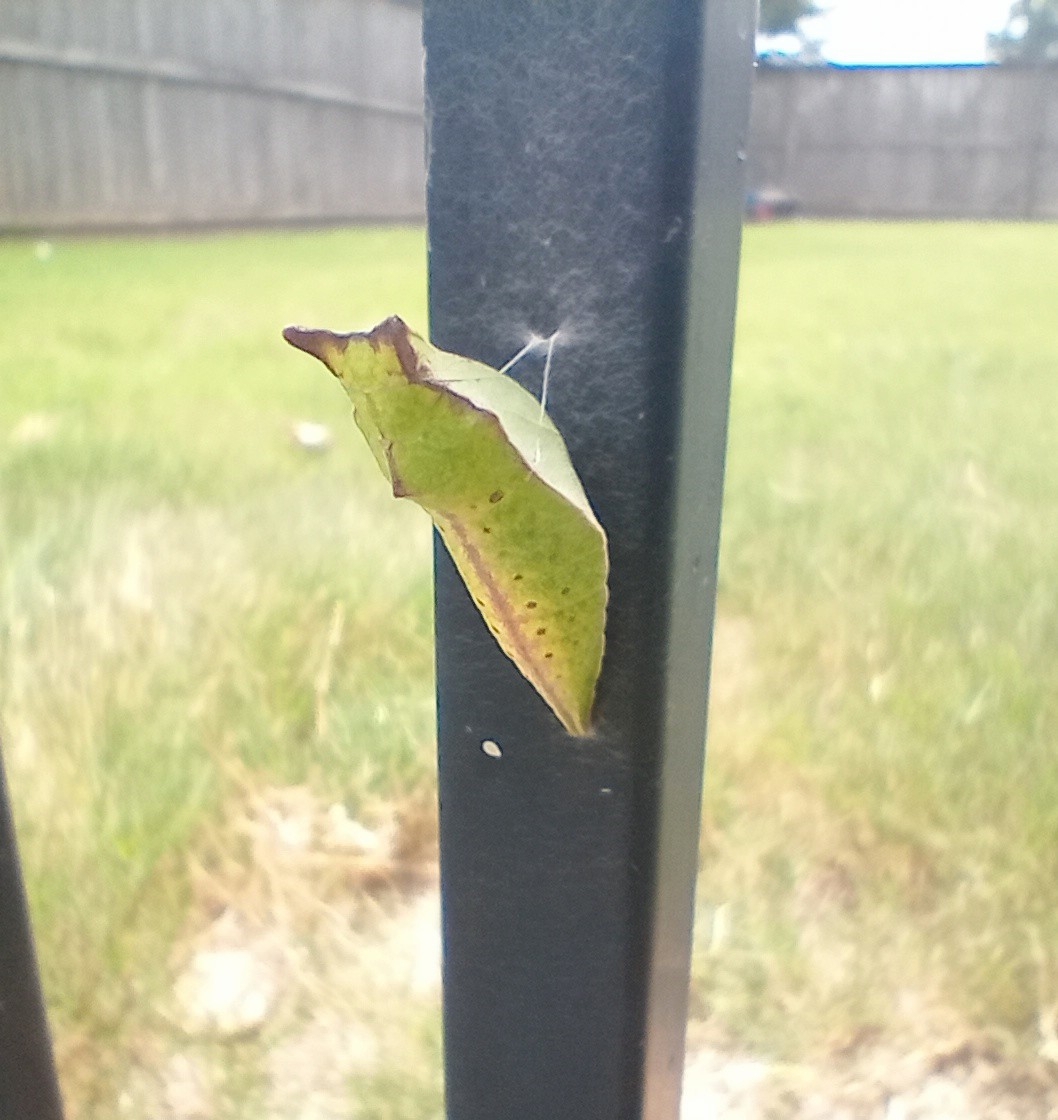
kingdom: Animalia
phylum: Arthropoda
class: Insecta
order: Lepidoptera
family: Papilionidae
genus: Papilio
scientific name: Papilio troilus
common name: Spicebush swallowtail
